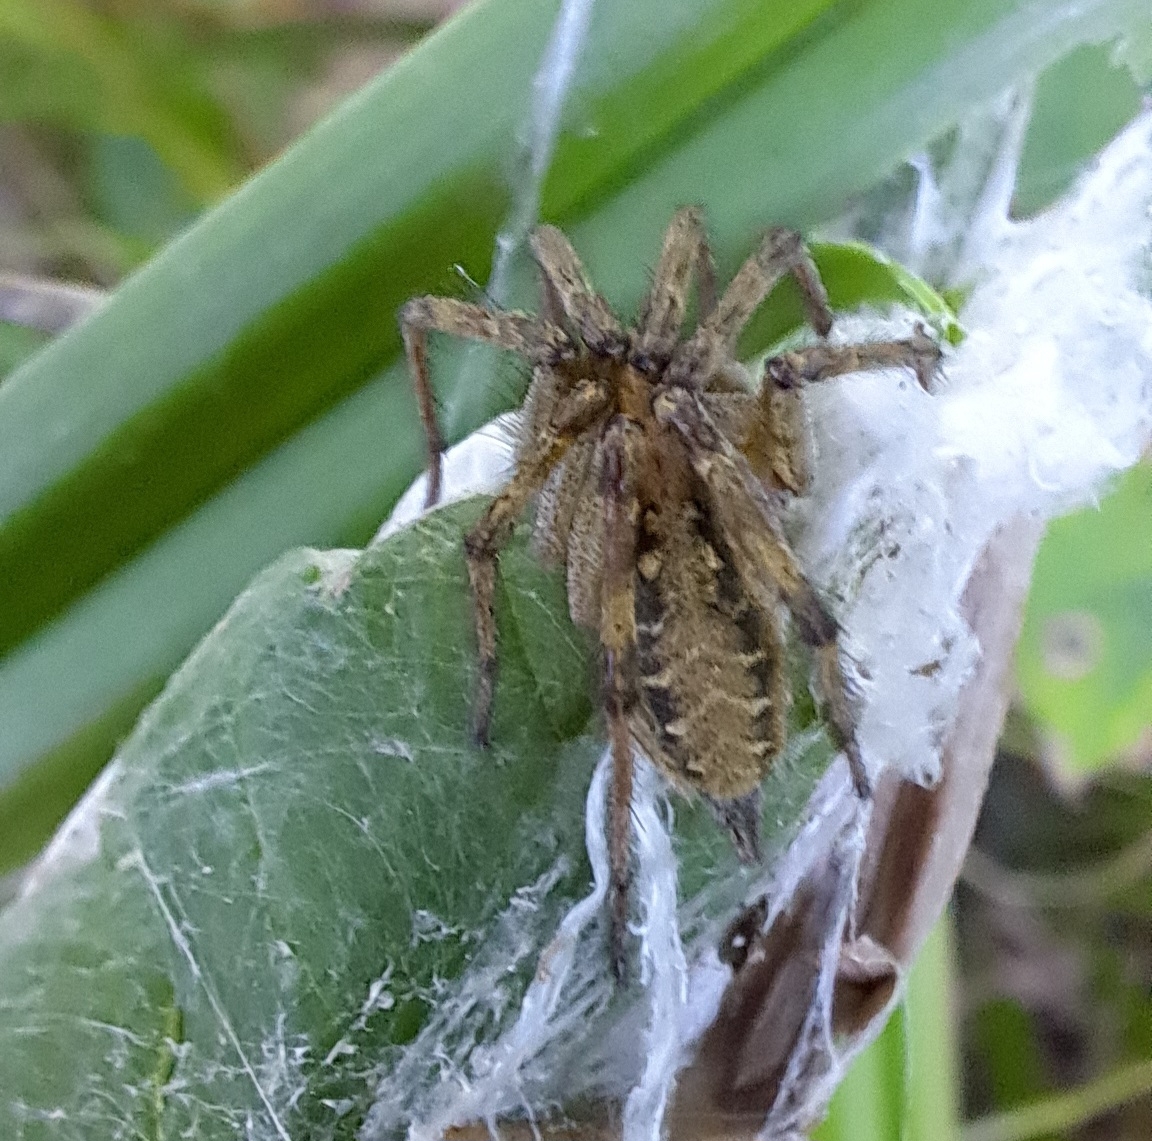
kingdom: Animalia
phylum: Arthropoda
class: Arachnida
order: Araneae
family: Agelenidae
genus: Agelena
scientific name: Agelena labyrinthica
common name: Labyrinth spider
